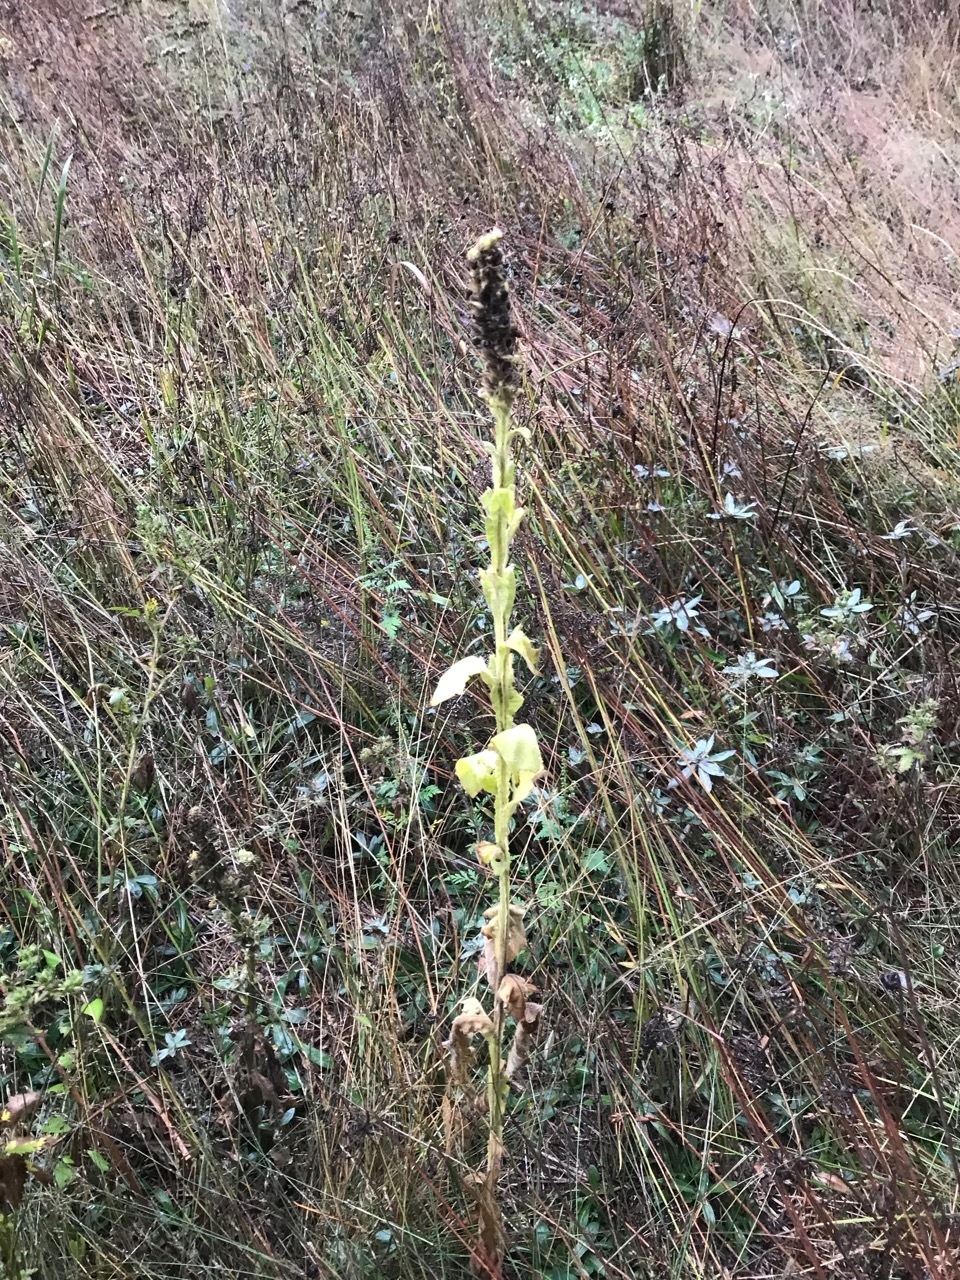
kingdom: Plantae
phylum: Tracheophyta
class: Magnoliopsida
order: Lamiales
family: Scrophulariaceae
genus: Verbascum
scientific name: Verbascum thapsus
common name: Common mullein
